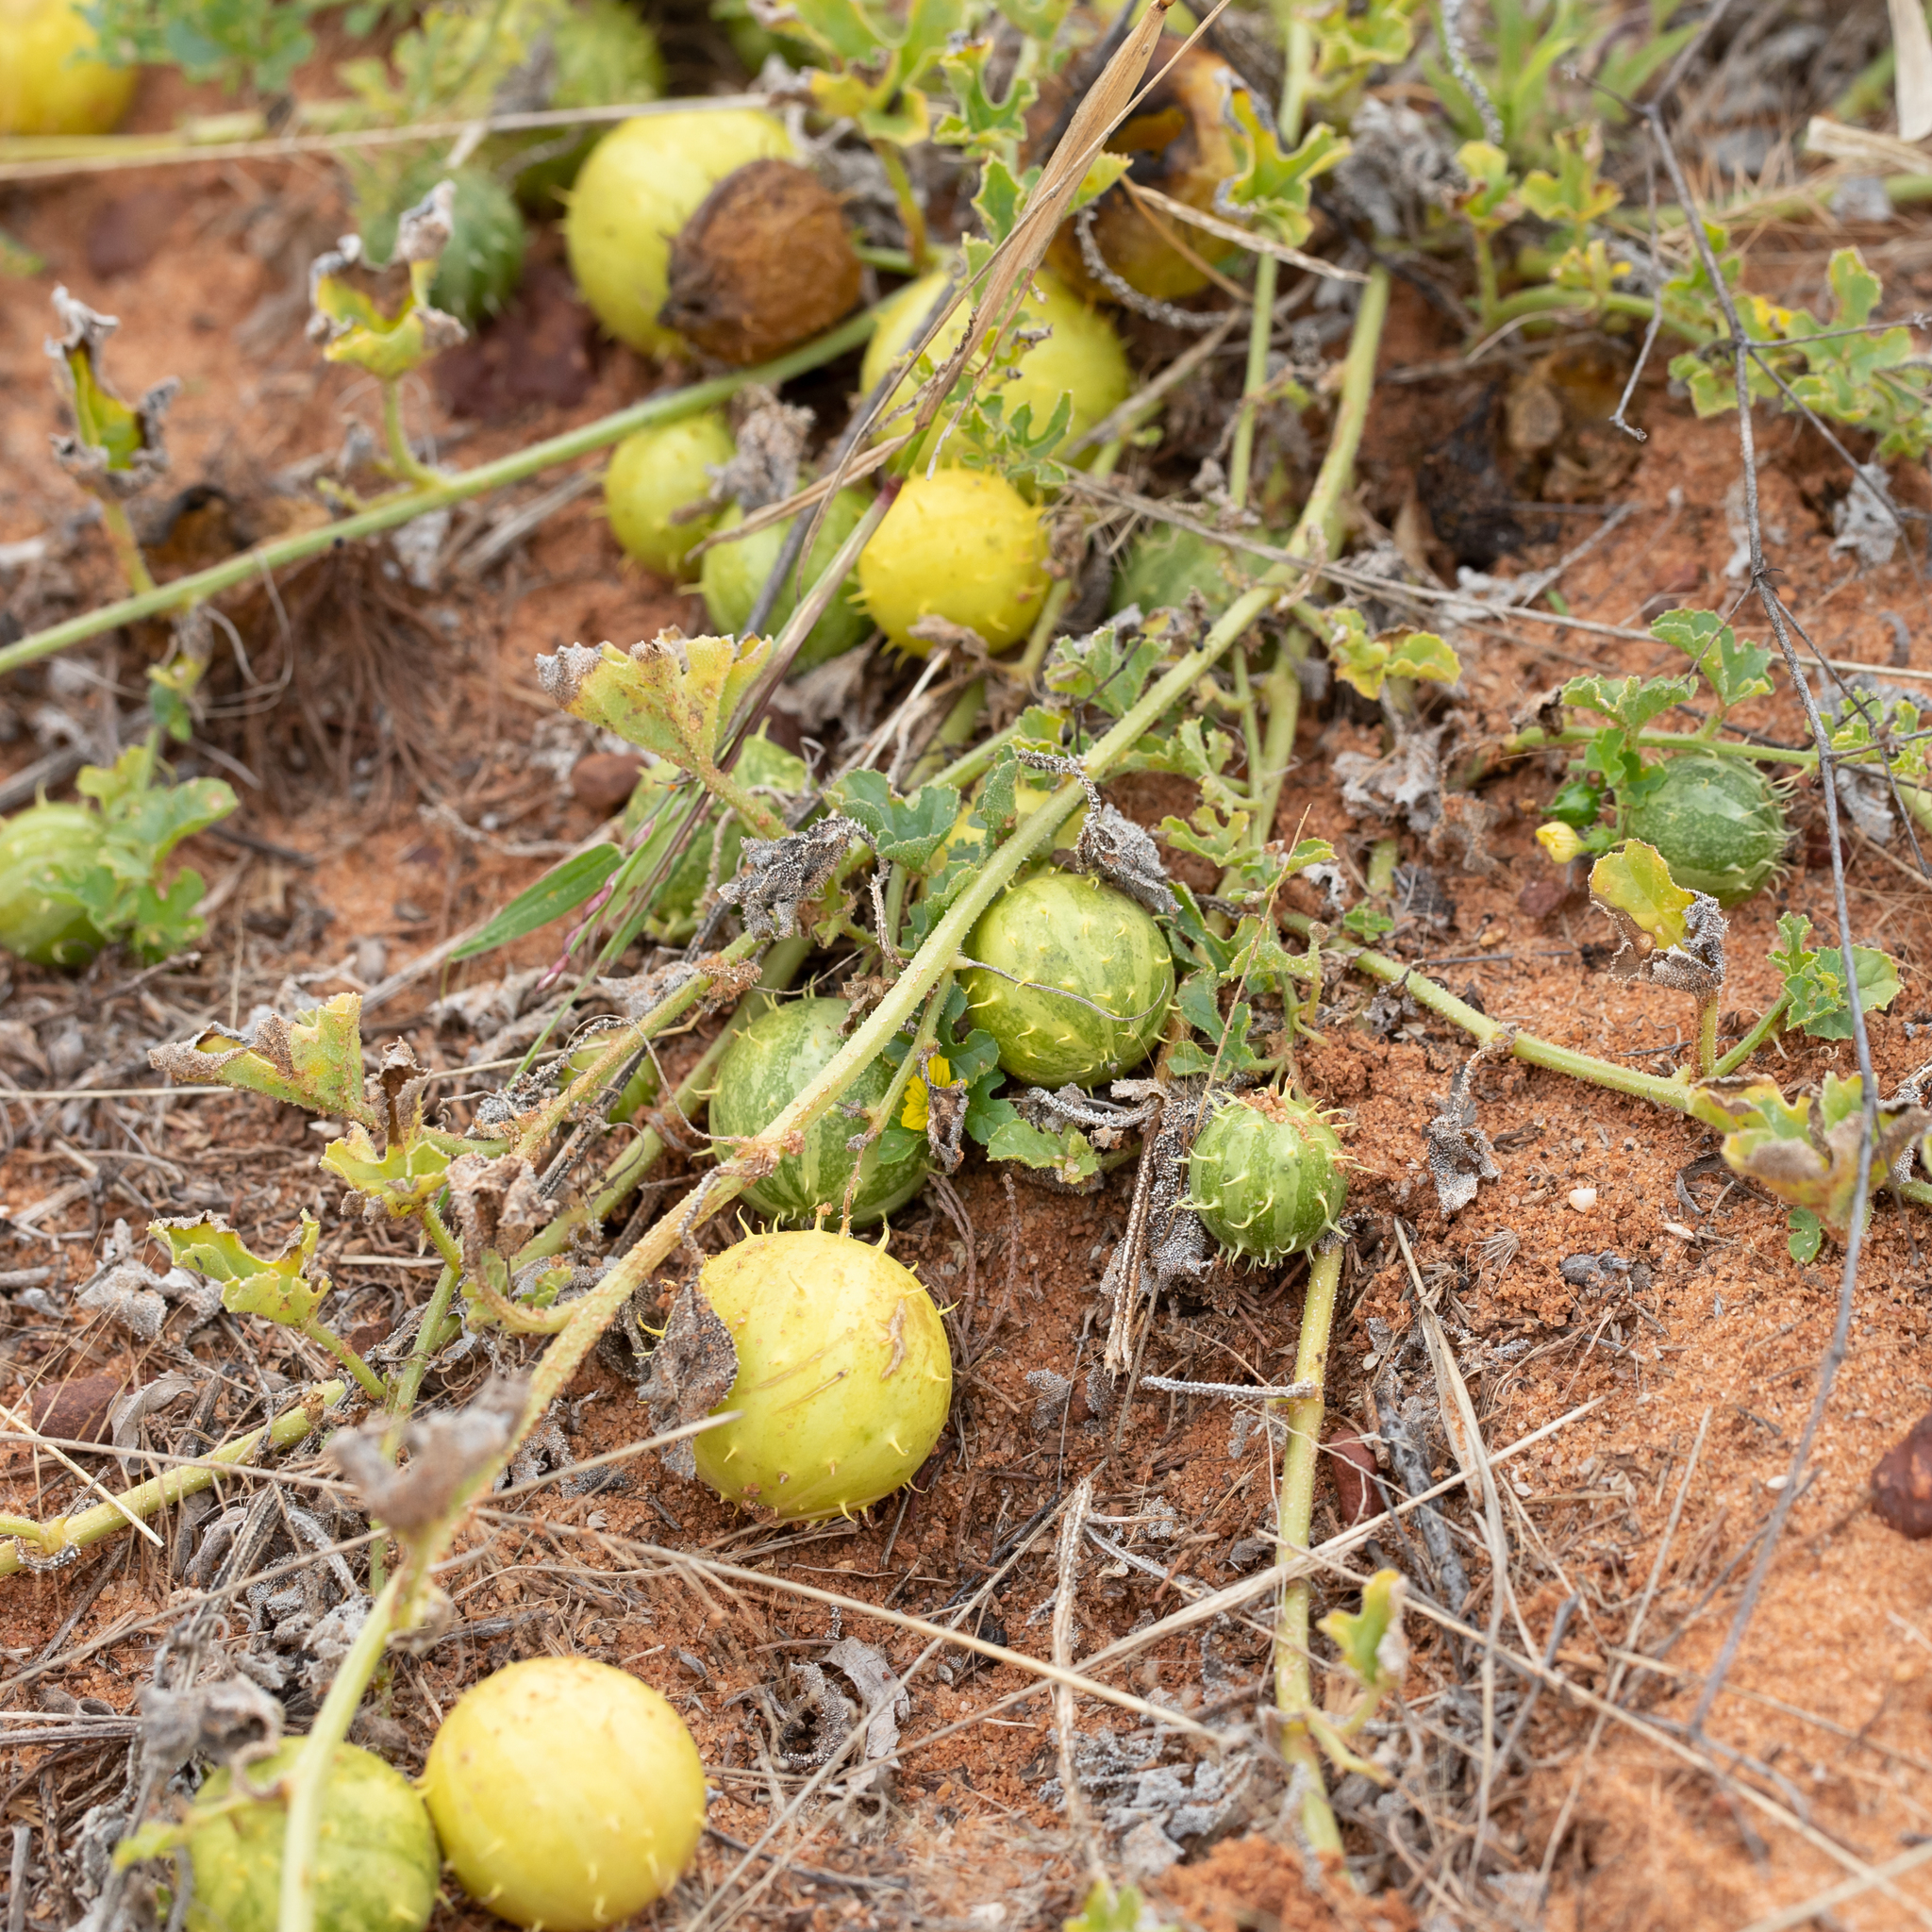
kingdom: Plantae
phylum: Tracheophyta
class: Magnoliopsida
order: Cucurbitales
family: Cucurbitaceae
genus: Cucumis
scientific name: Cucumis myriocarpus
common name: Gooseberry cucumber
